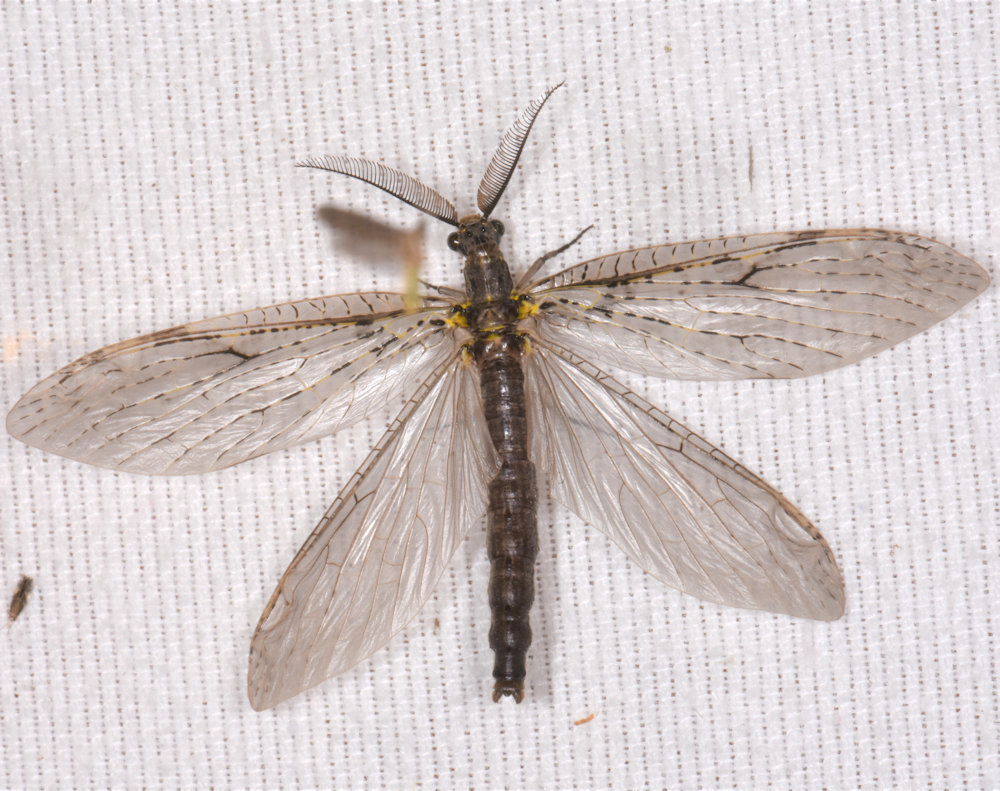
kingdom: Animalia
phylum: Arthropoda
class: Insecta
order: Megaloptera
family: Corydalidae
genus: Chauliodes
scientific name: Chauliodes rastricornis
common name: Spring fishfly
